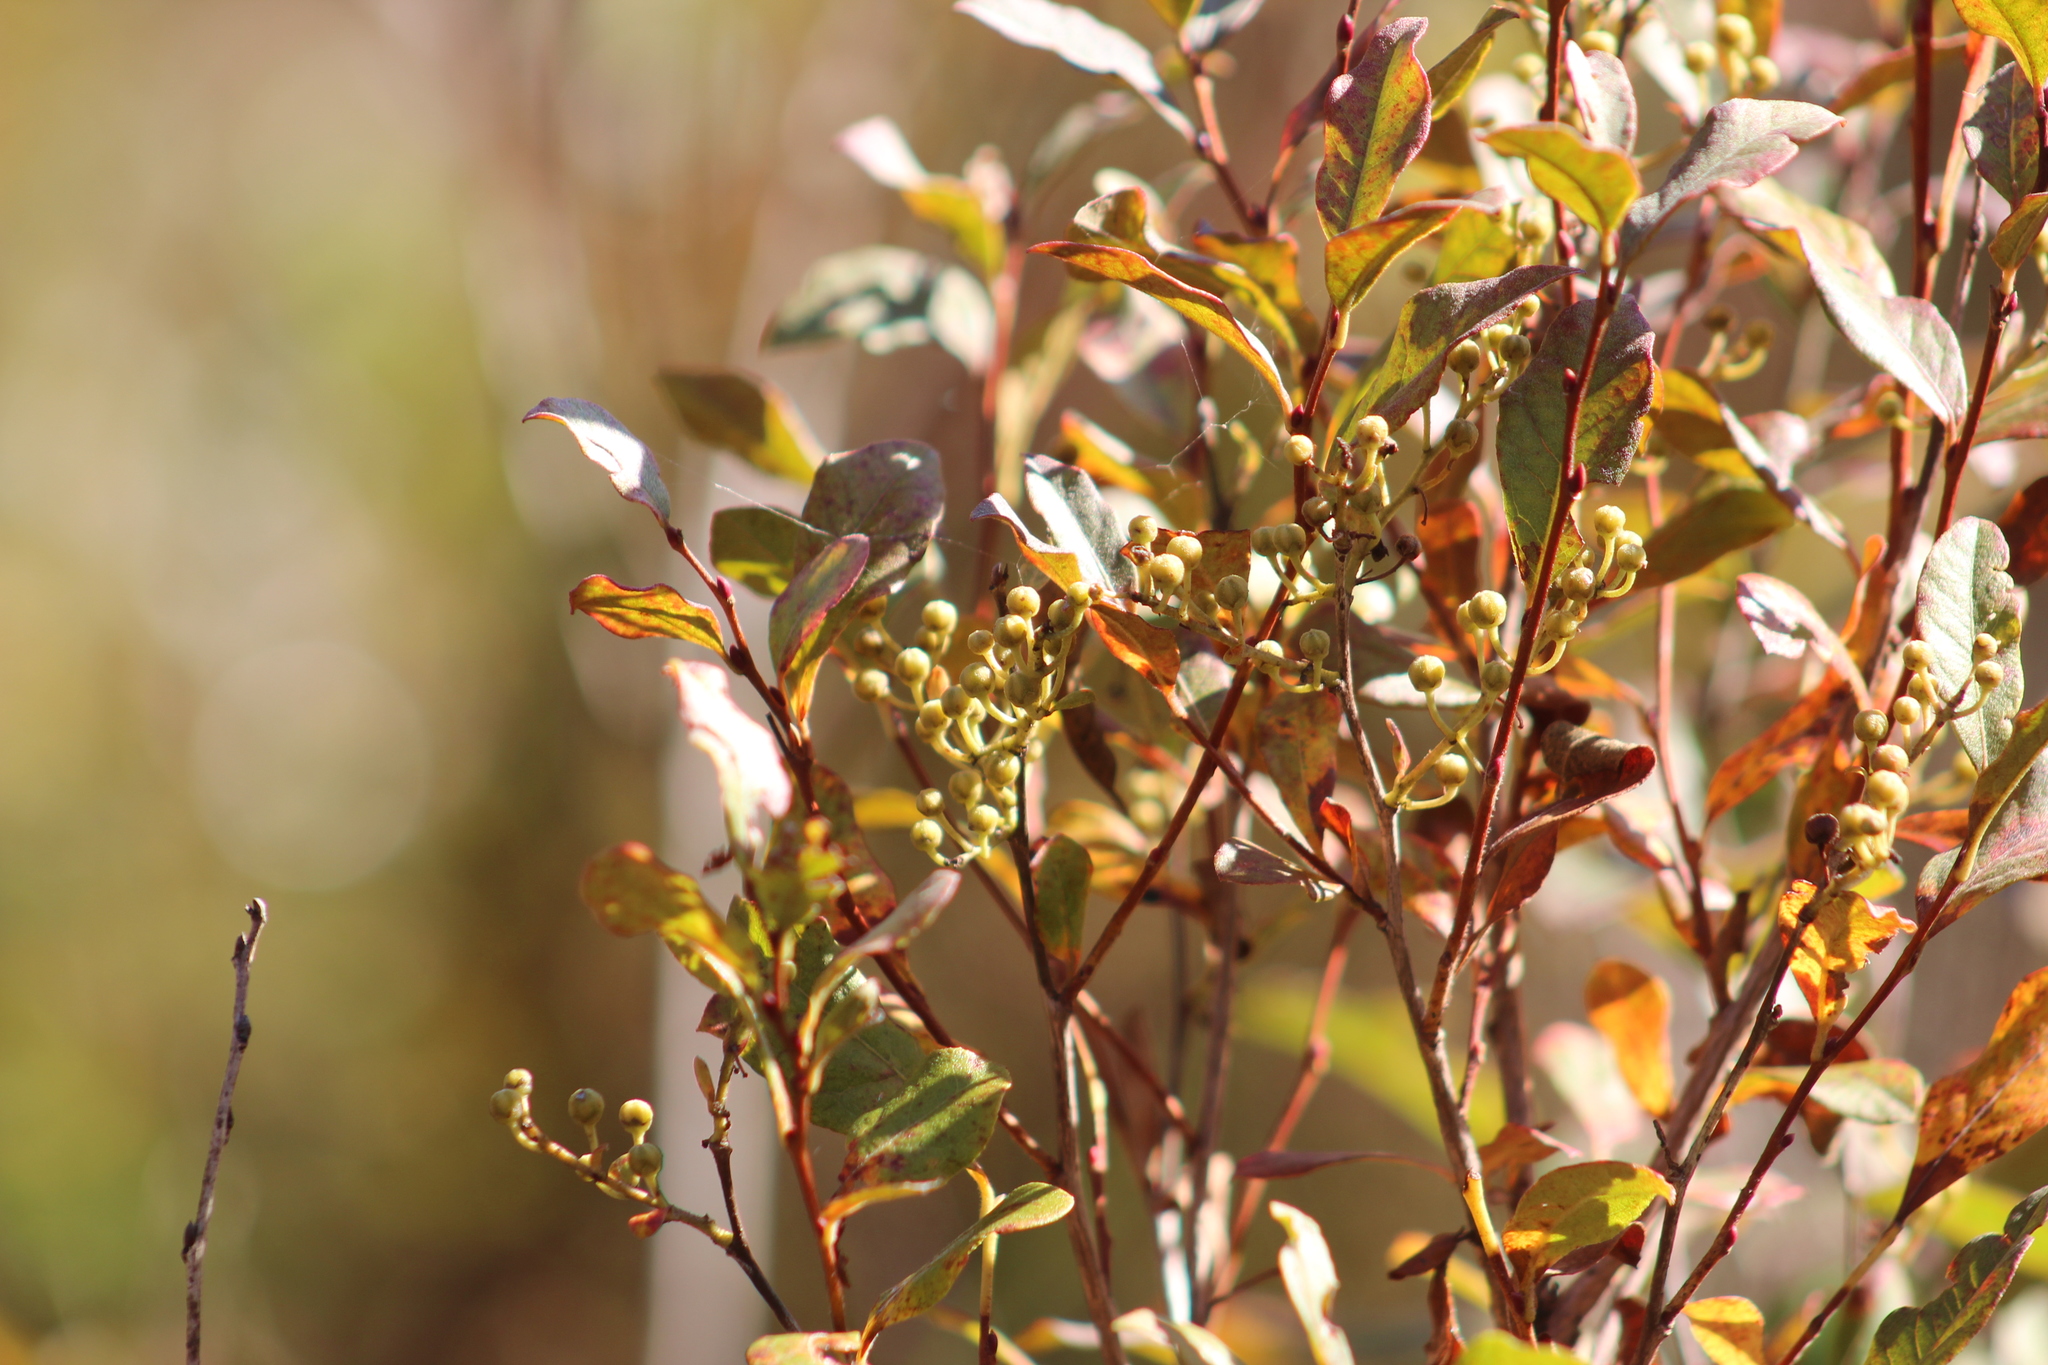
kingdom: Plantae
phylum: Tracheophyta
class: Magnoliopsida
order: Ericales
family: Ericaceae
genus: Lyonia
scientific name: Lyonia ligustrina
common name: Maleberry
